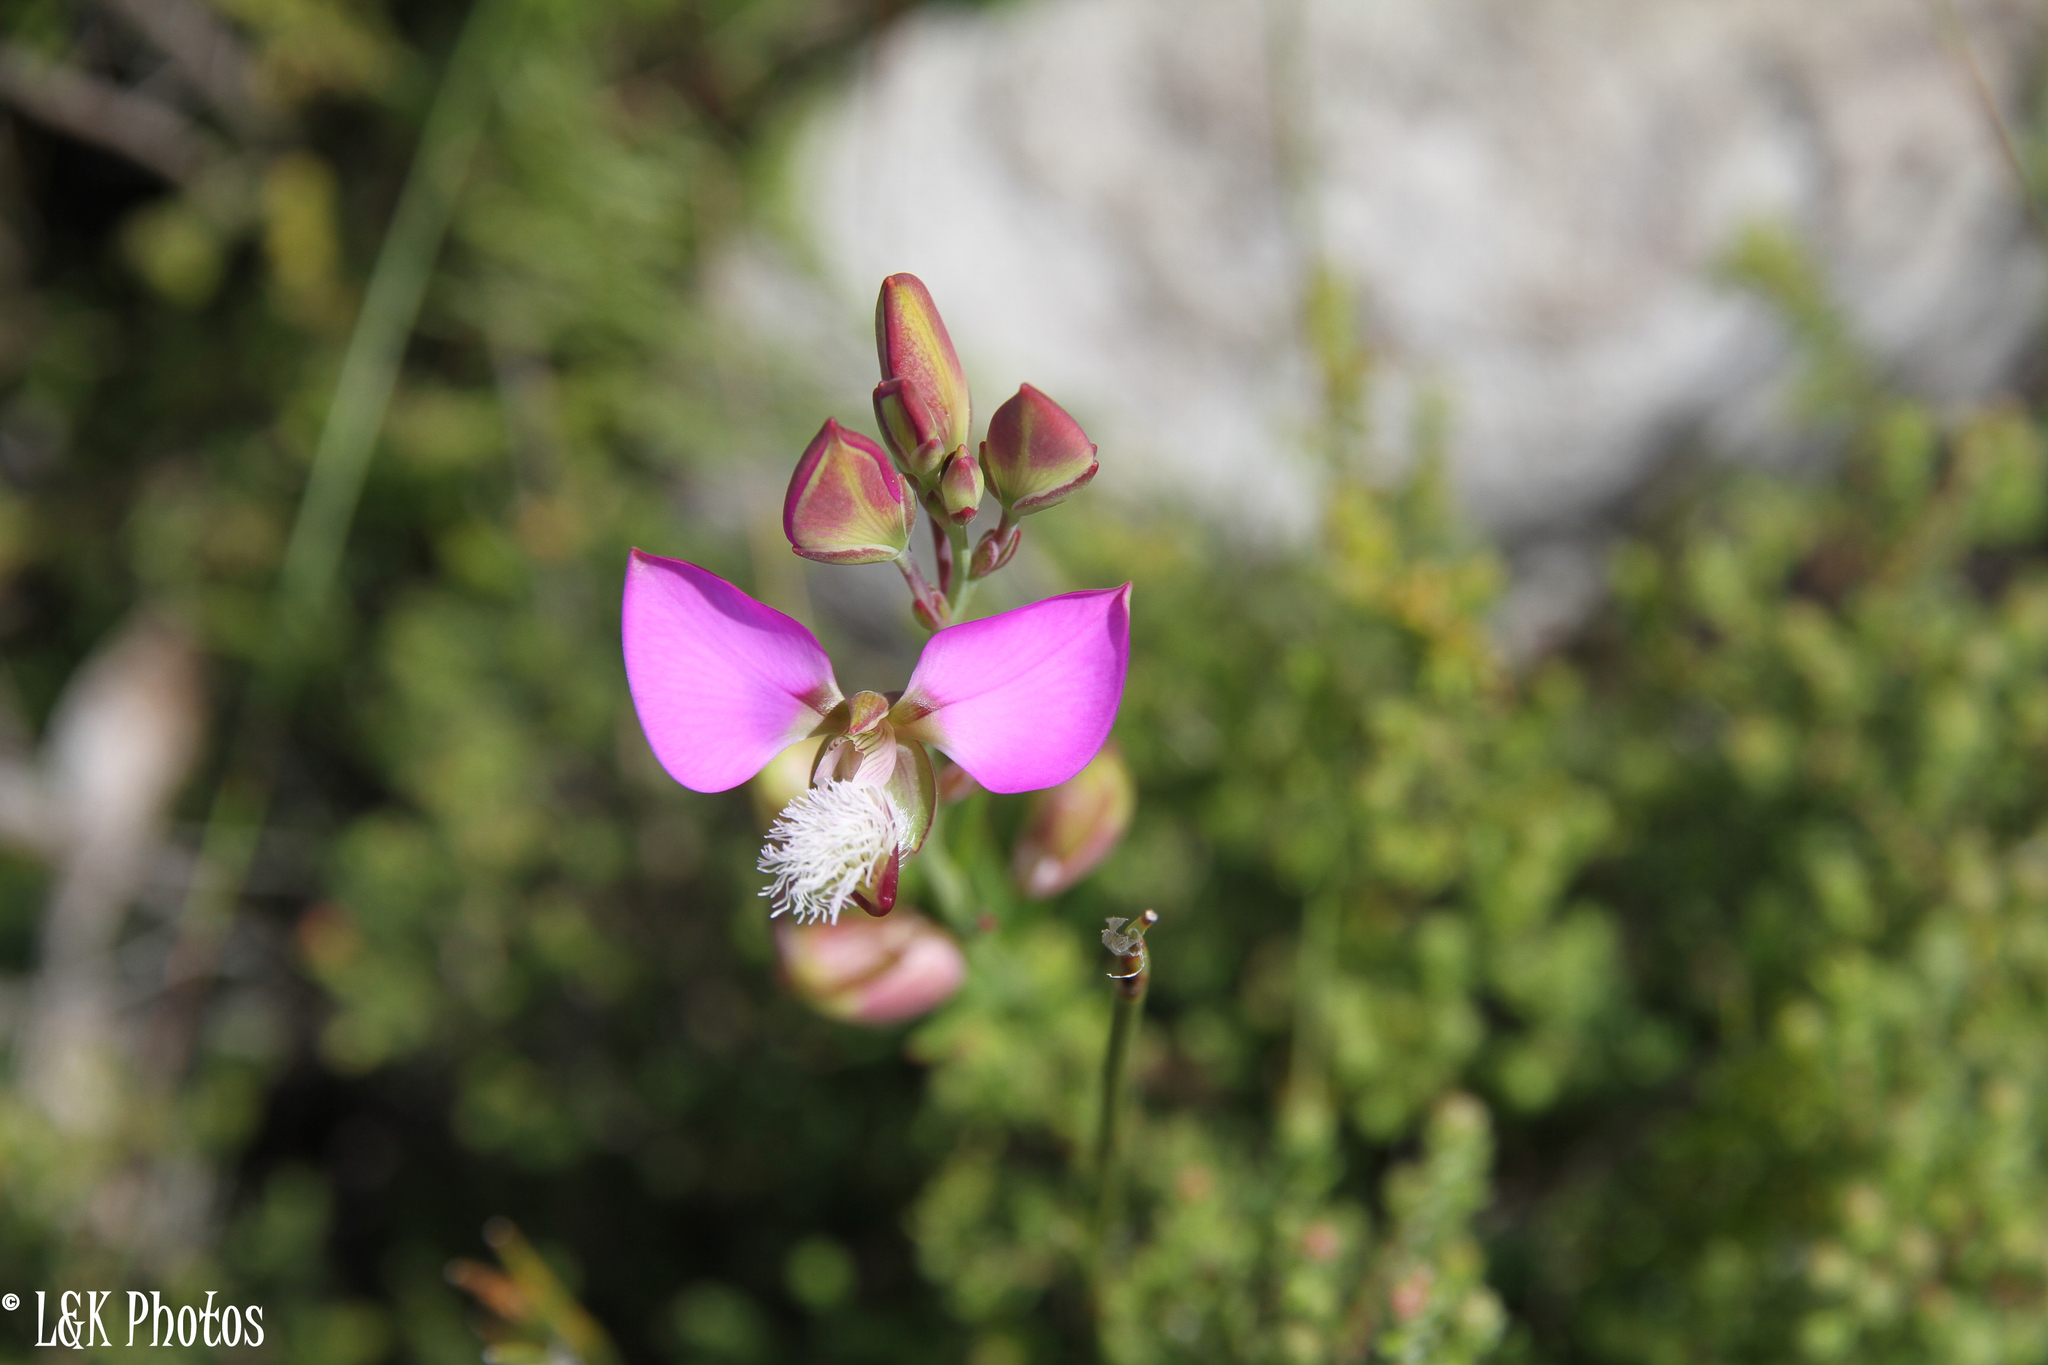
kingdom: Plantae
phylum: Tracheophyta
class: Magnoliopsida
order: Fabales
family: Polygalaceae
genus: Polygala
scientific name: Polygala bracteolata
